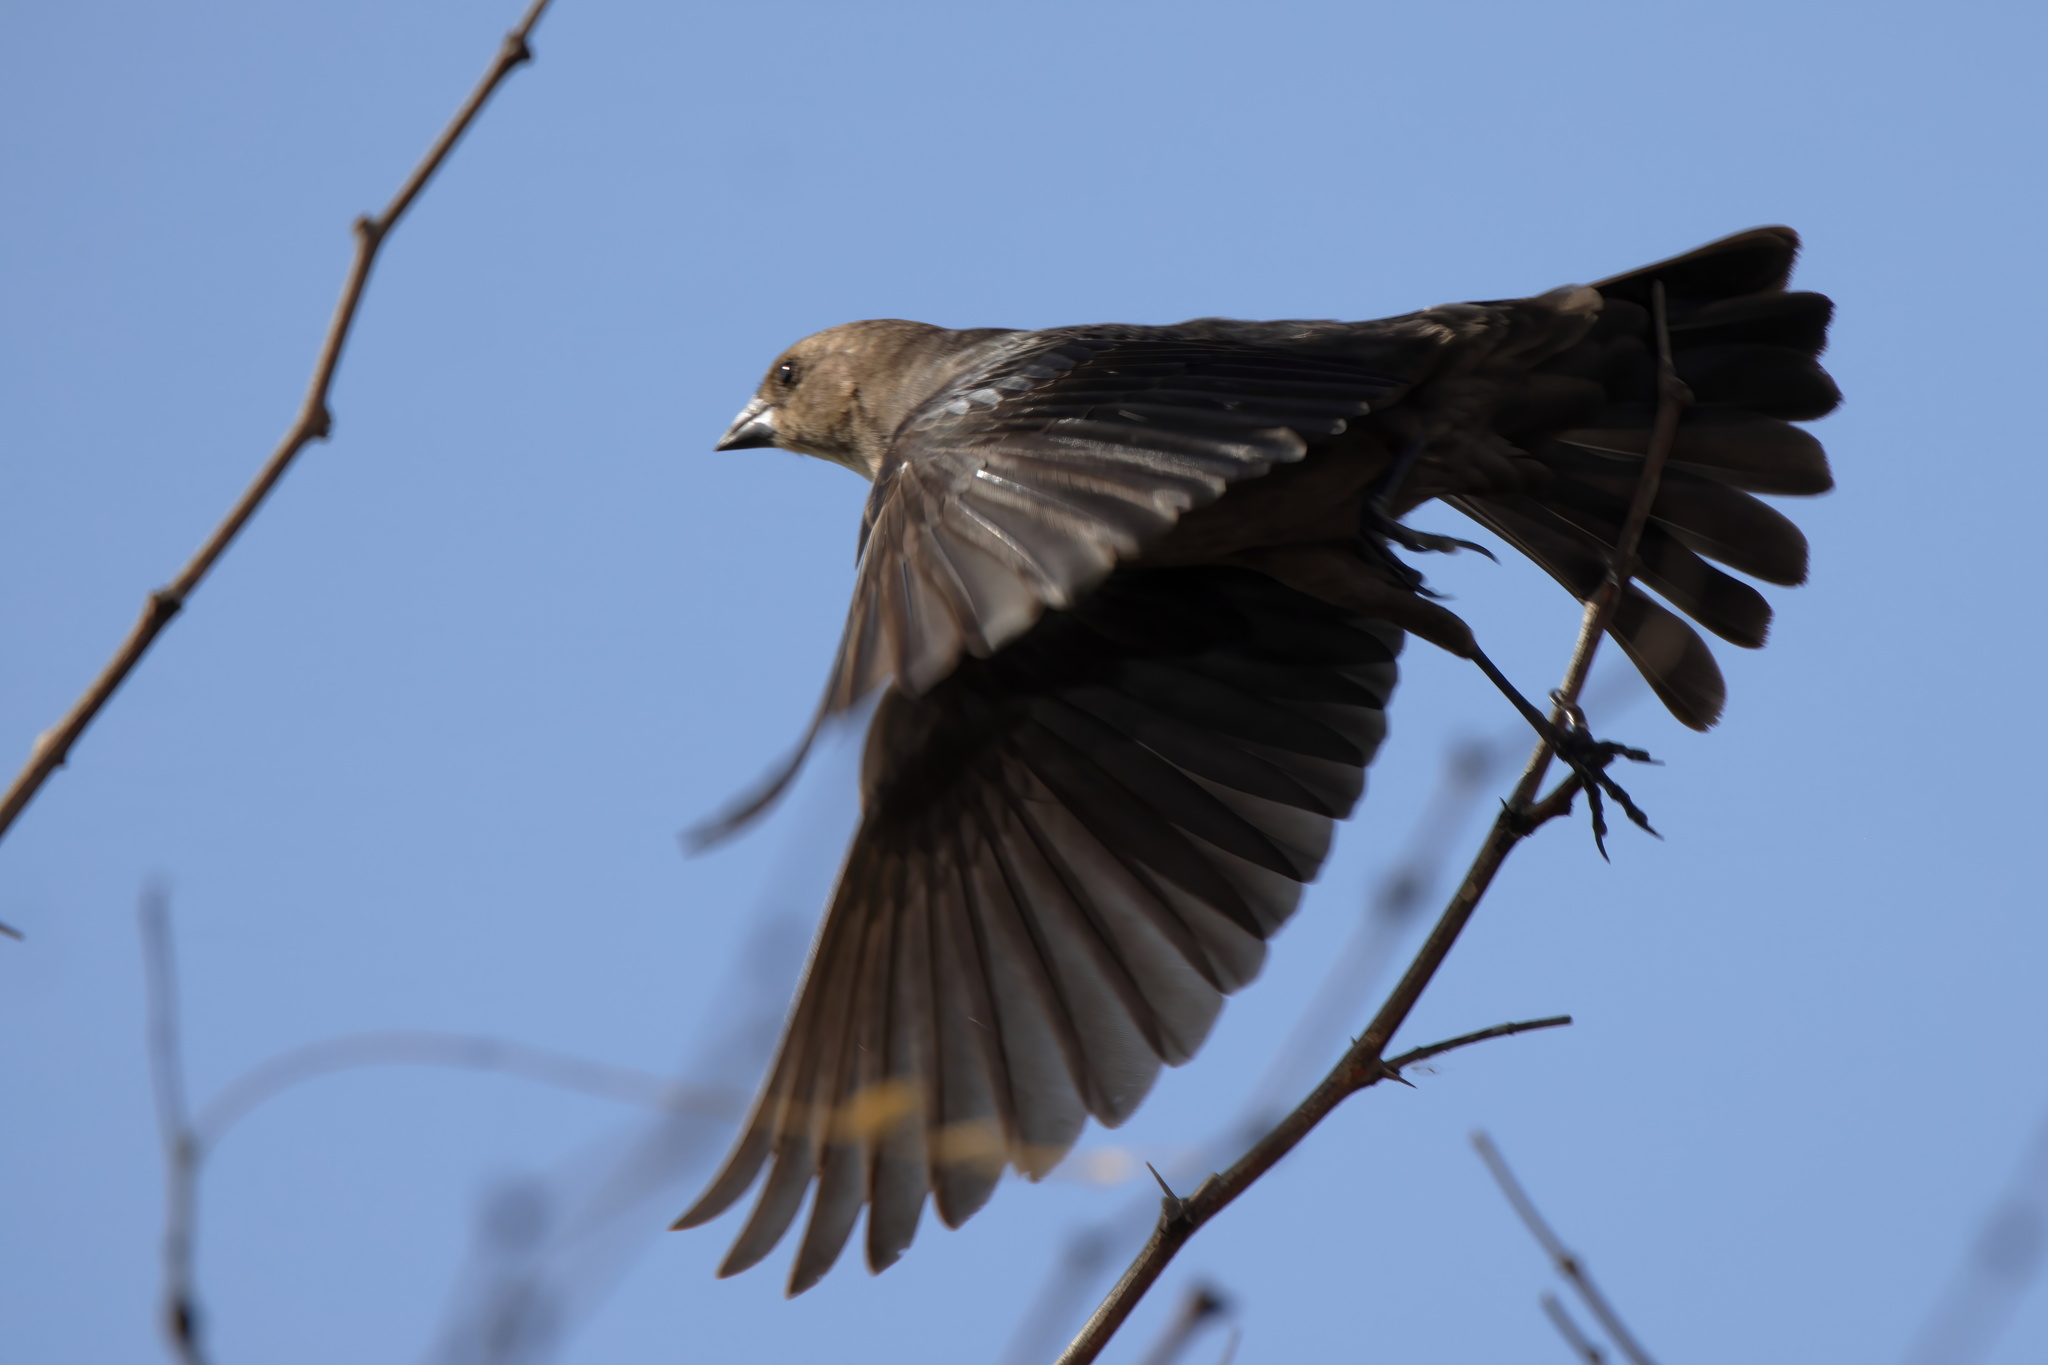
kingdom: Animalia
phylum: Chordata
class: Aves
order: Passeriformes
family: Icteridae
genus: Molothrus
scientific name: Molothrus ater
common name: Brown-headed cowbird
